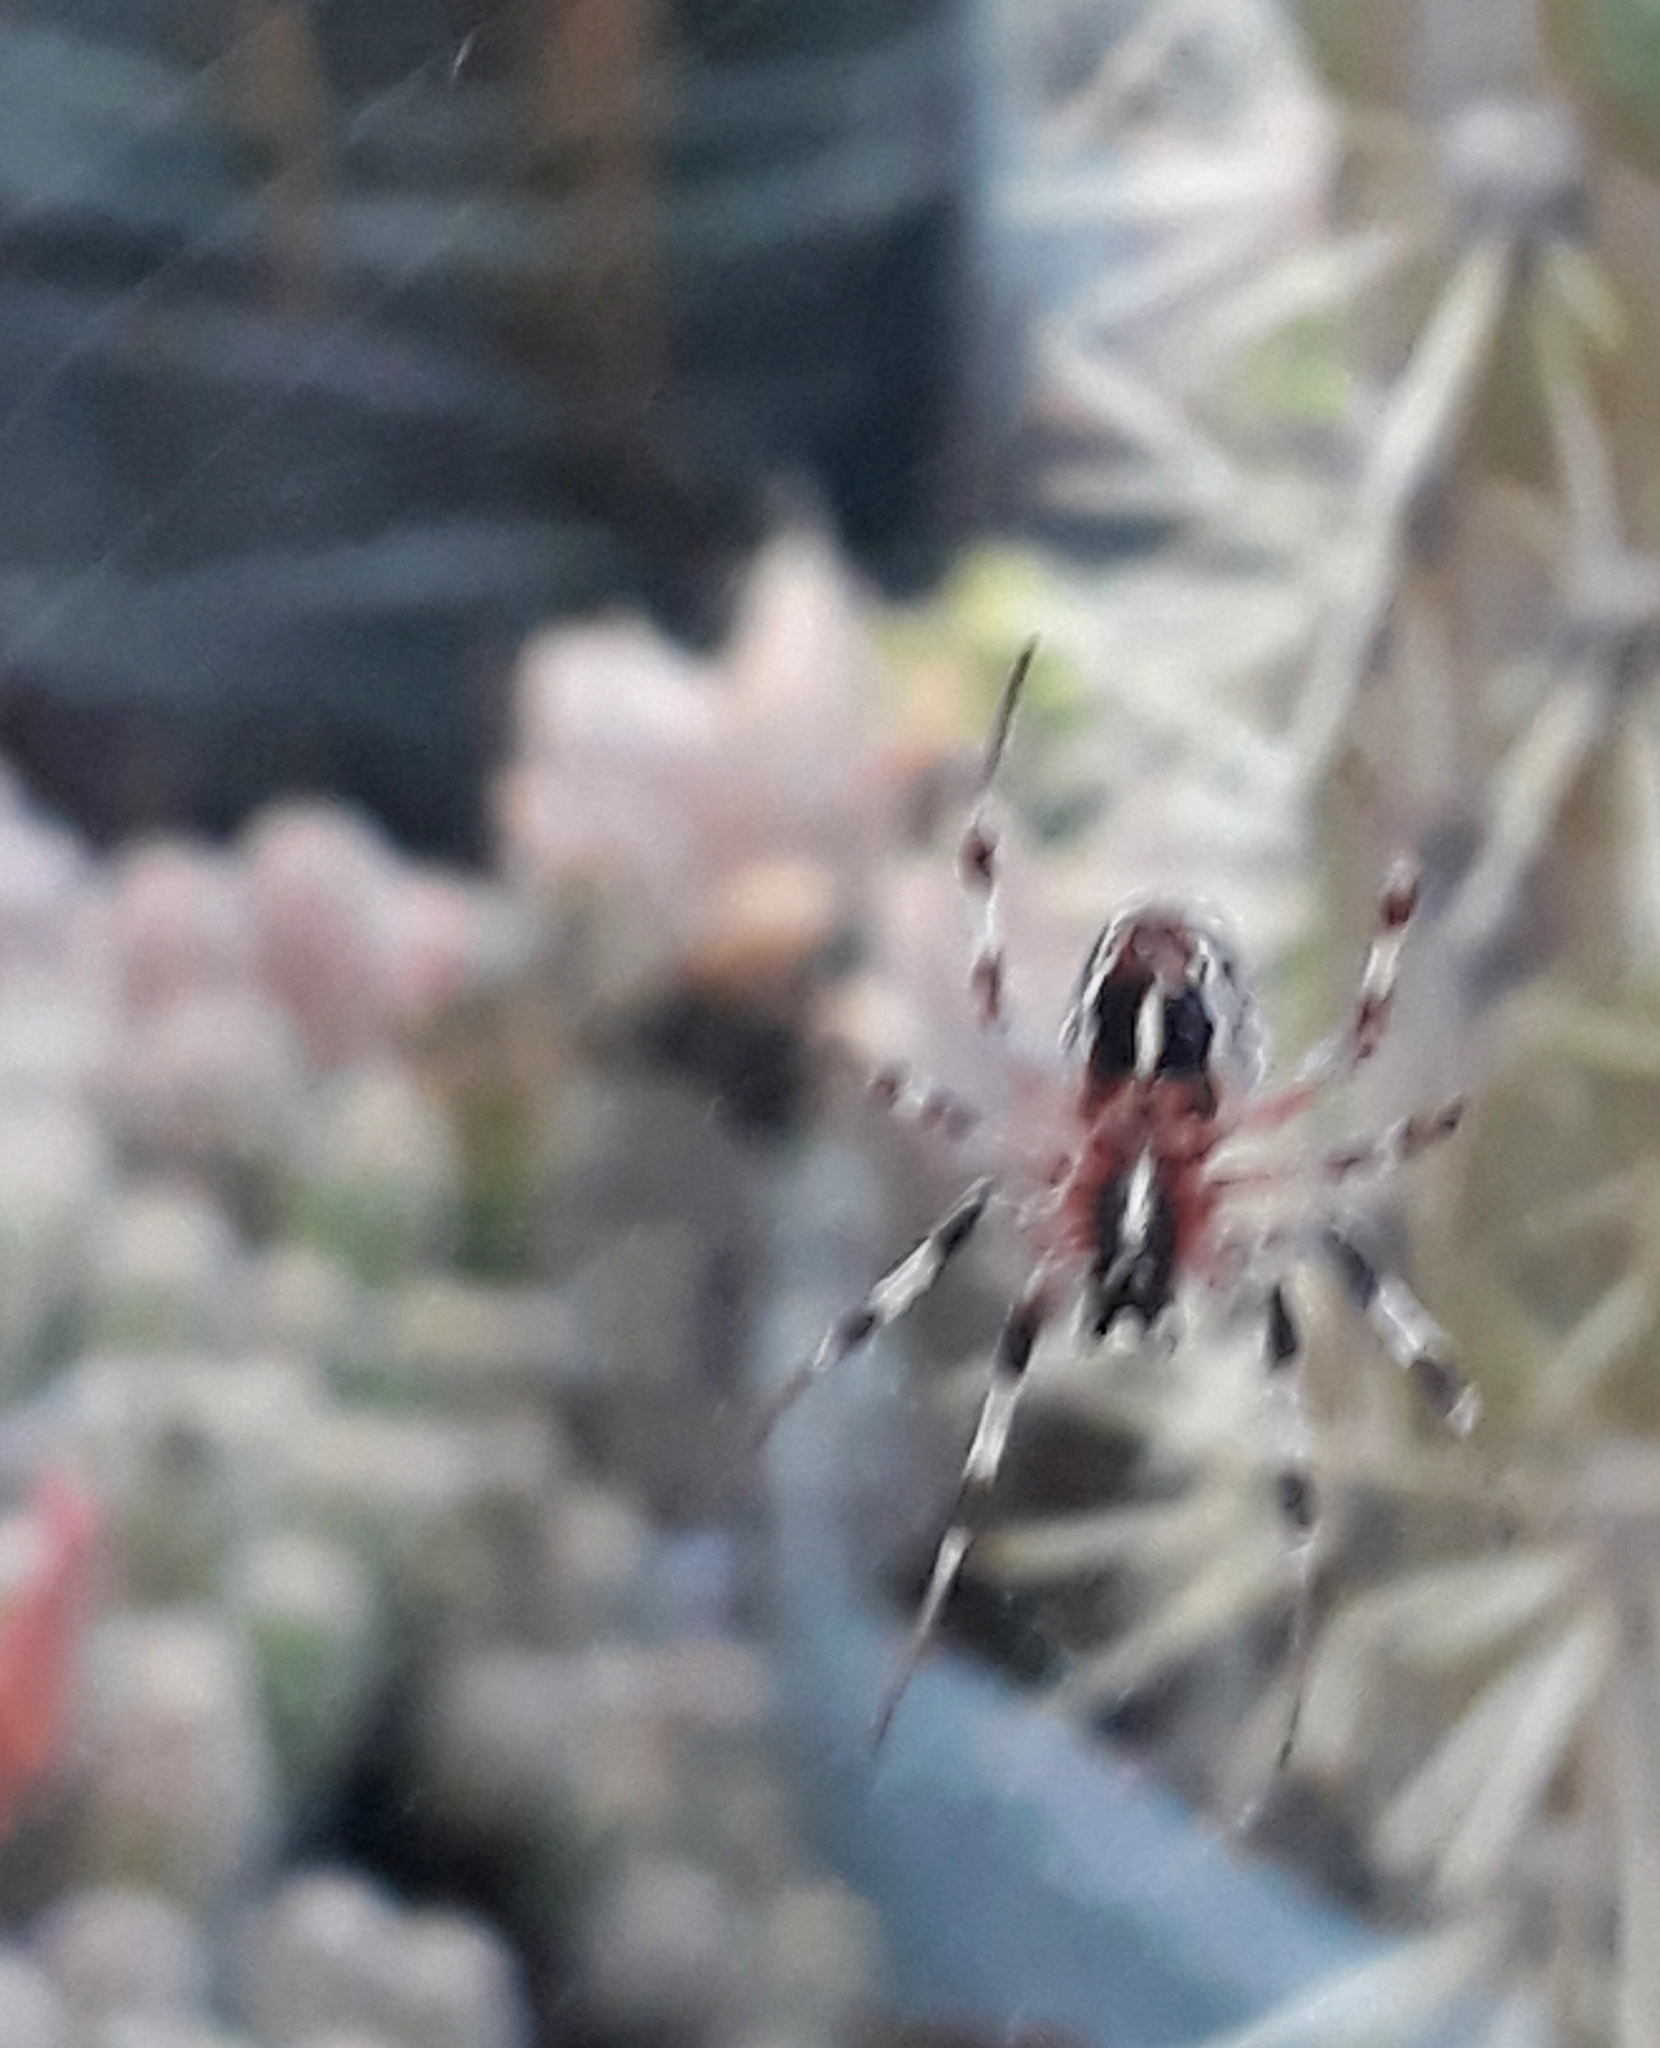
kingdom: Animalia
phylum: Arthropoda
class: Arachnida
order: Araneae
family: Araneidae
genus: Metepeira
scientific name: Metepeira
